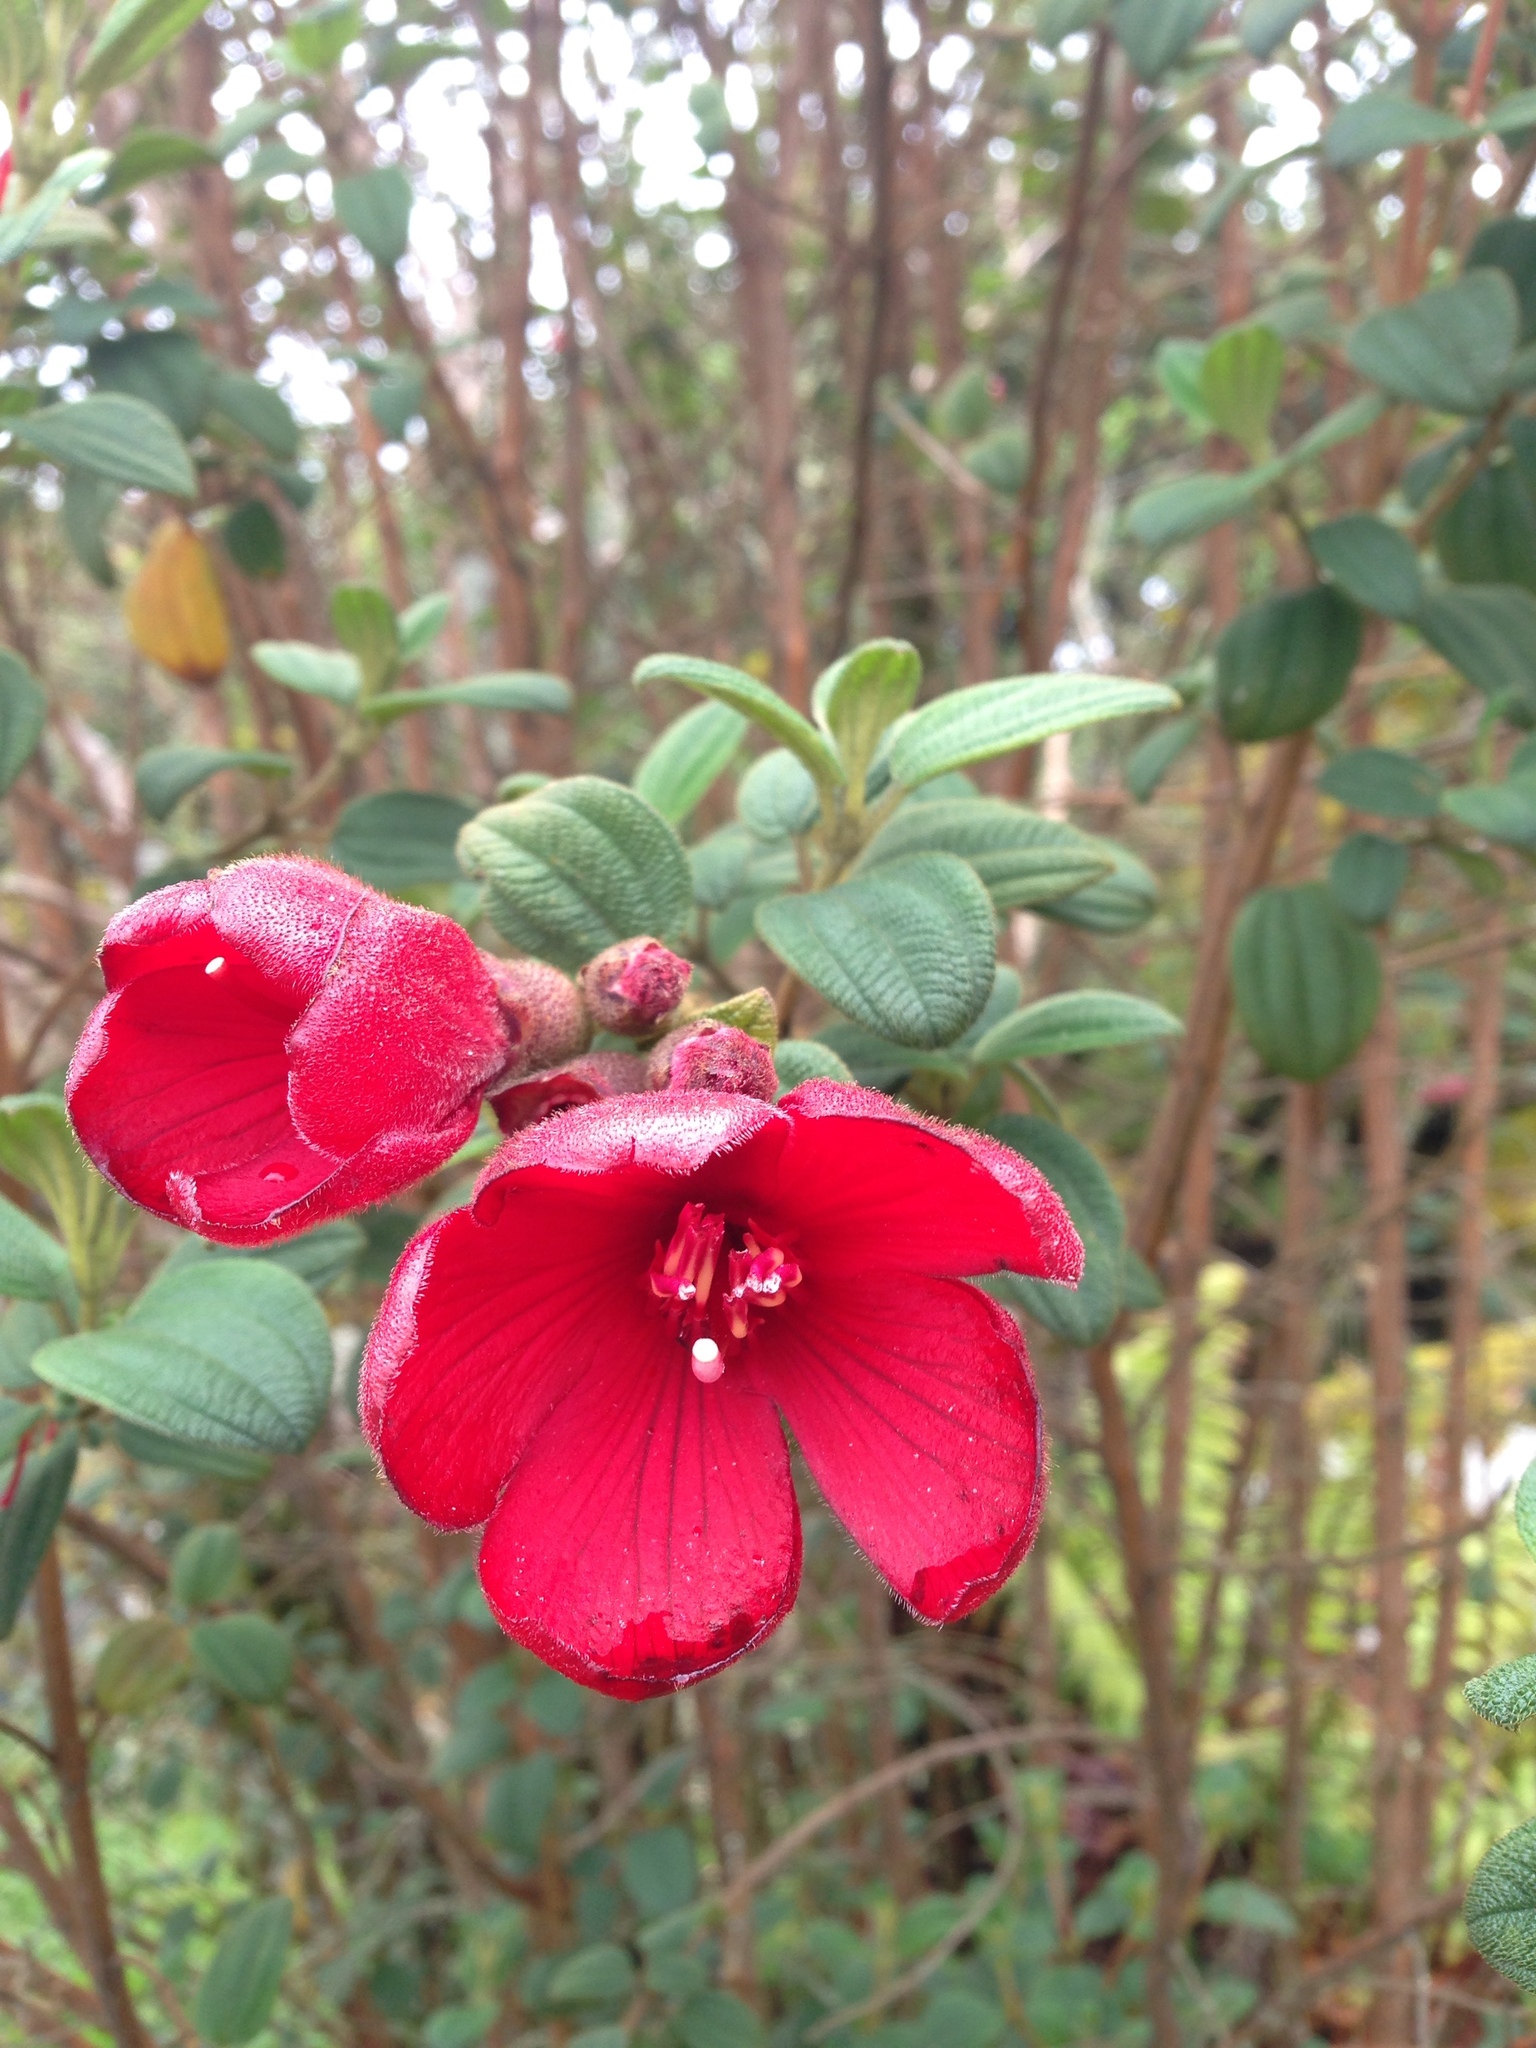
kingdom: Plantae
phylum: Tracheophyta
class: Magnoliopsida
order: Myrtales
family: Melastomataceae
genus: Chaetogastra
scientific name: Chaetogastra grossa
